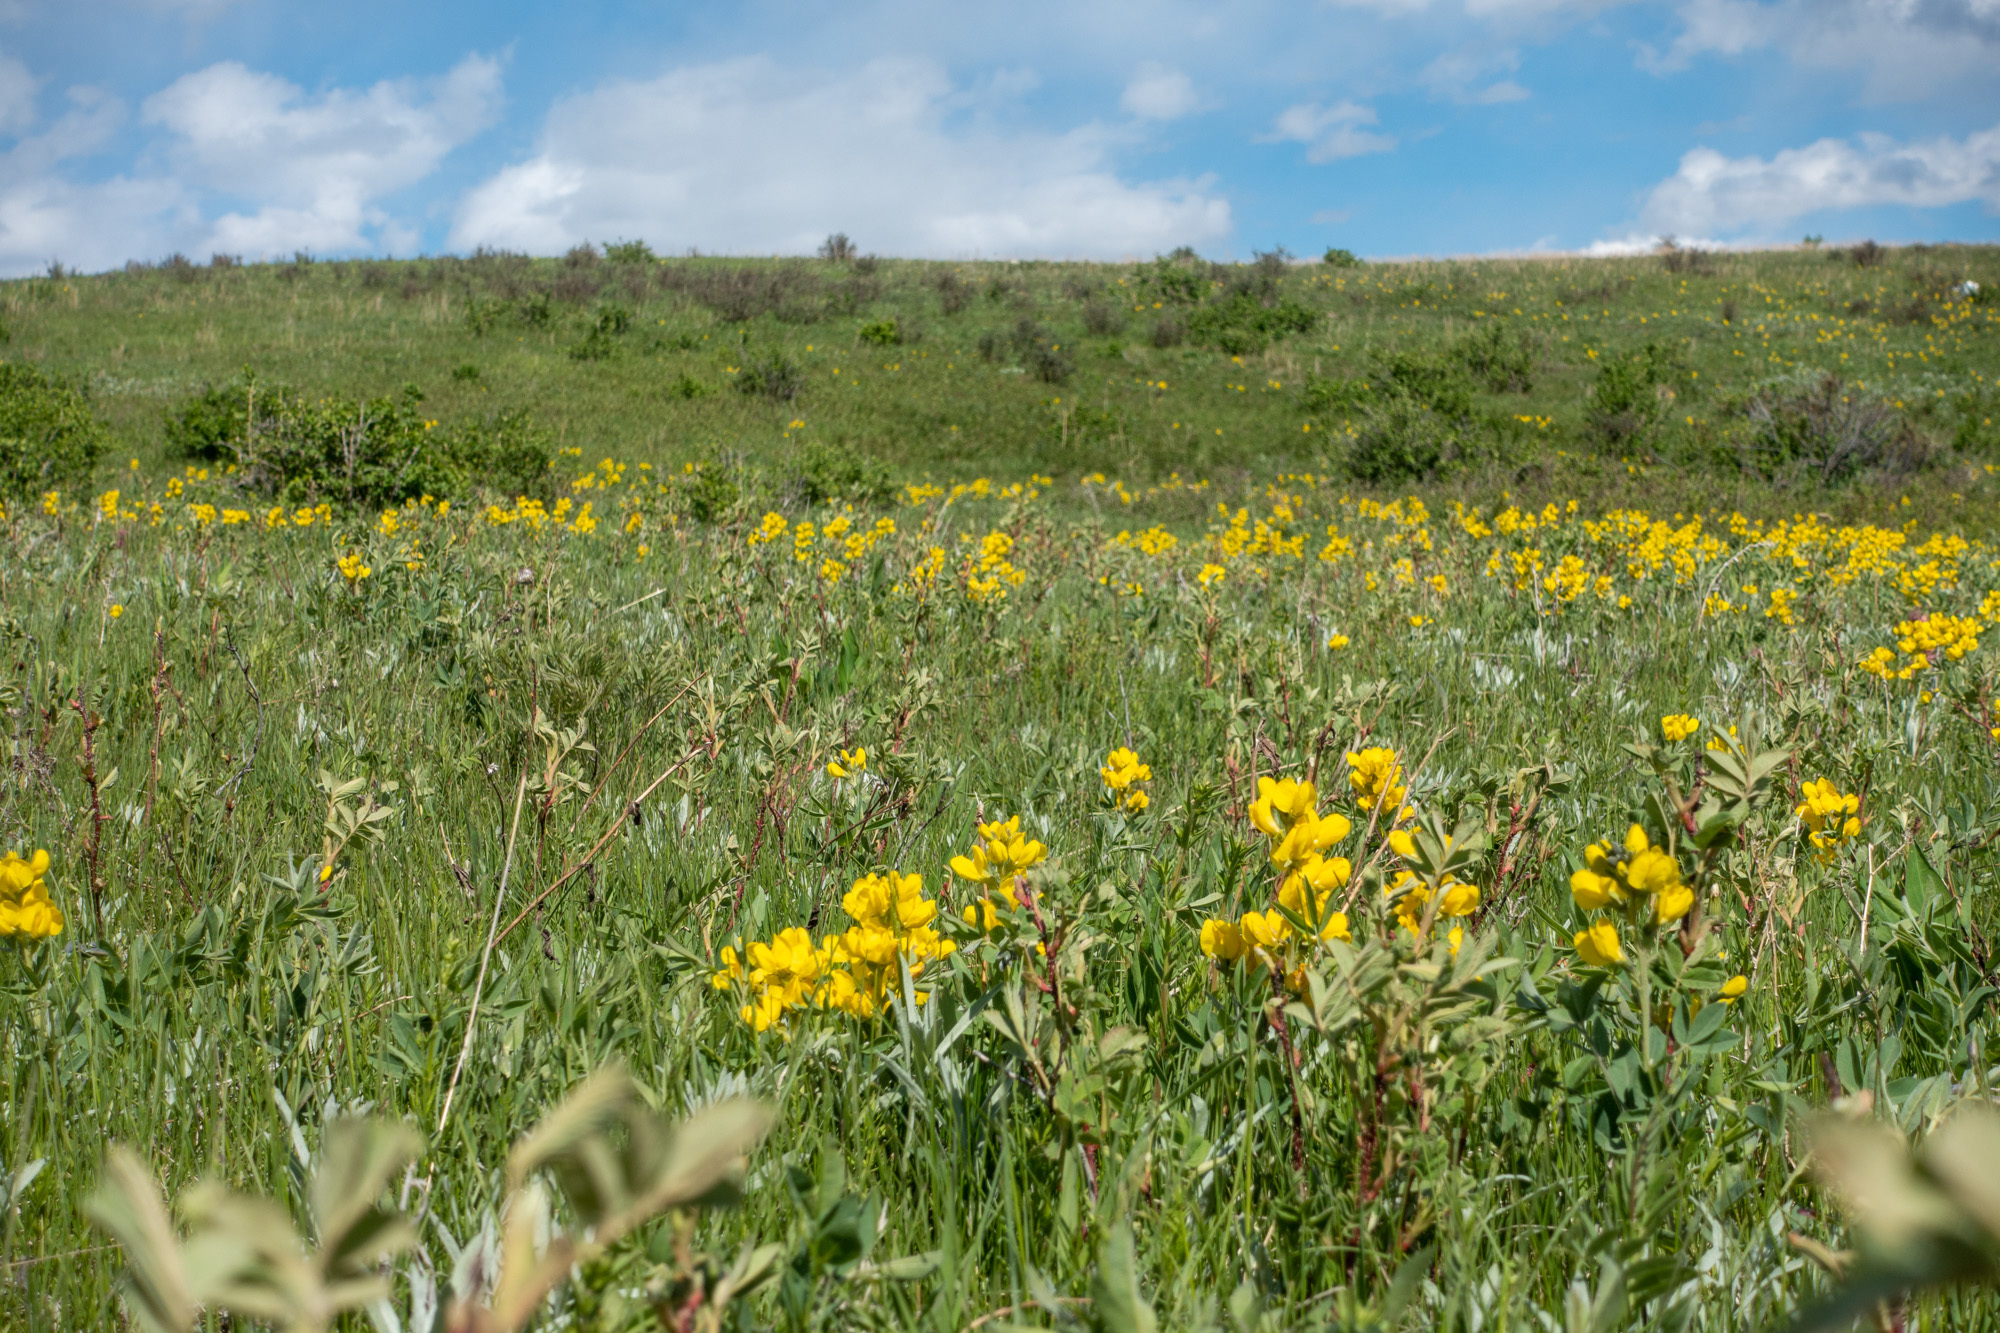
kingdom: Plantae
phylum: Tracheophyta
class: Magnoliopsida
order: Fabales
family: Fabaceae
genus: Thermopsis
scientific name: Thermopsis rhombifolia
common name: Circle-pod-pea
